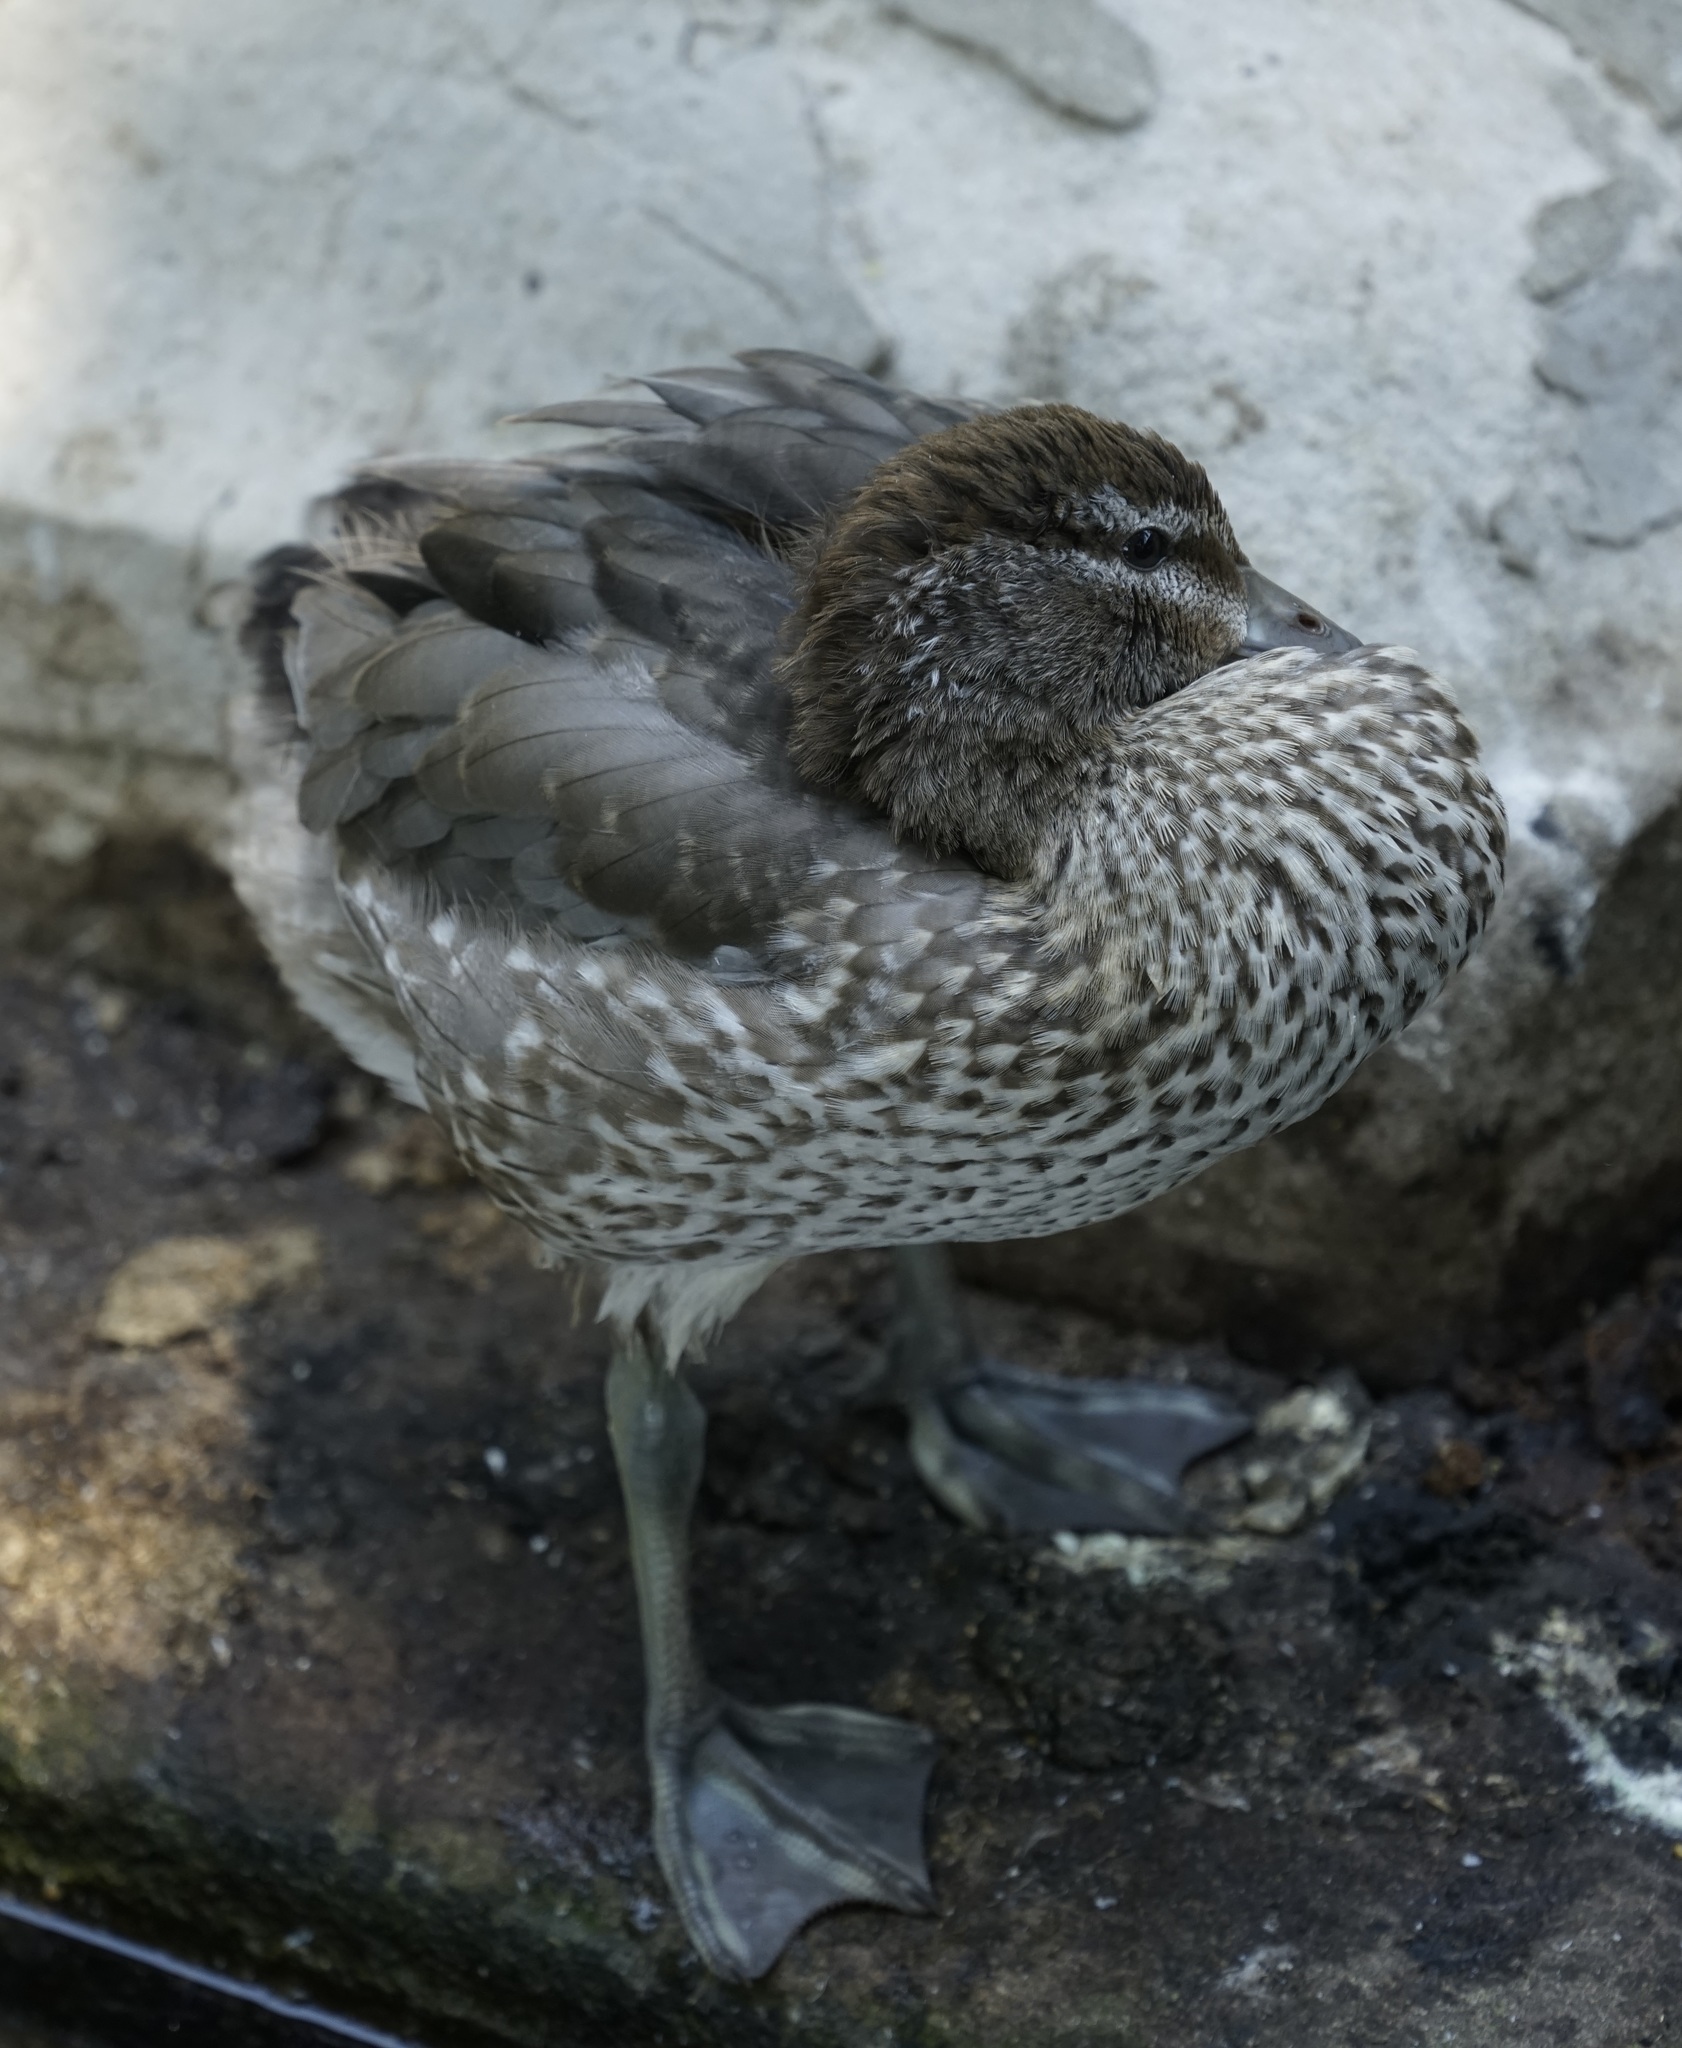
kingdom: Animalia
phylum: Chordata
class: Aves
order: Anseriformes
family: Anatidae
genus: Chenonetta
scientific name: Chenonetta jubata
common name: Maned duck
